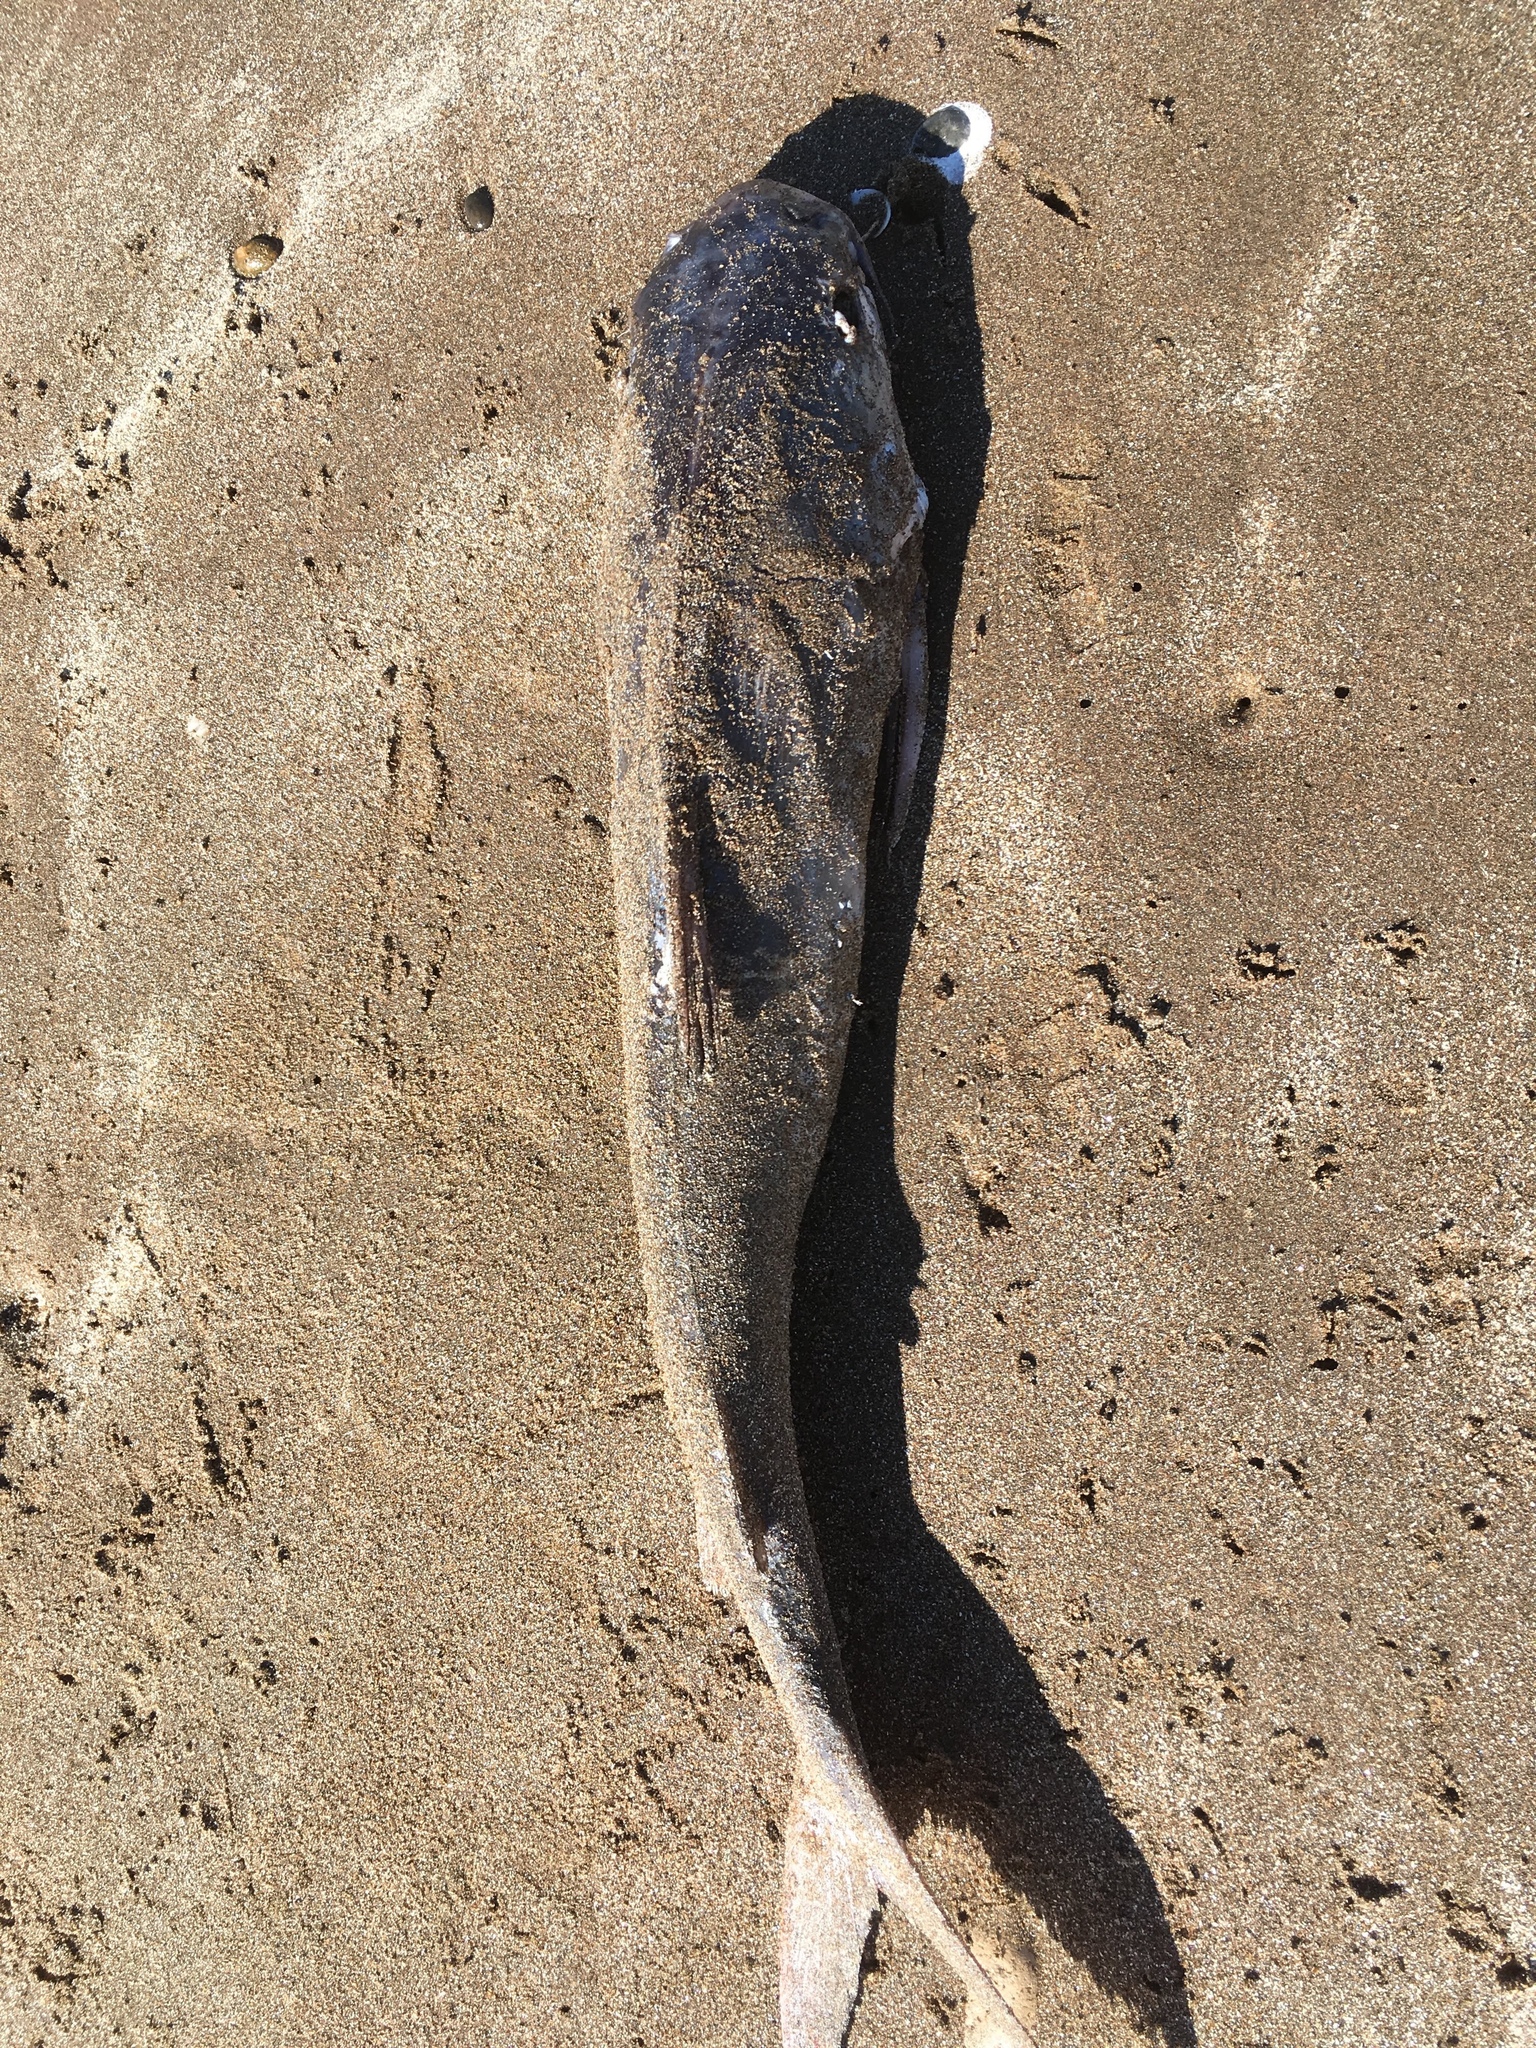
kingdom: Animalia
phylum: Chordata
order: Siluriformes
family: Ariidae
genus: Genidens
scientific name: Genidens barbus
